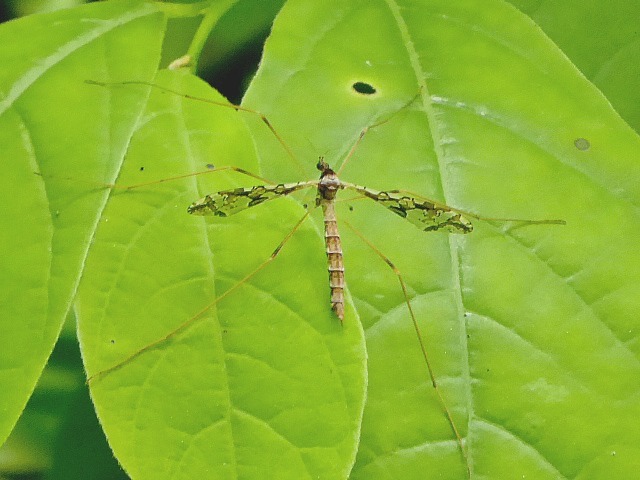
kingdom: Animalia
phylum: Arthropoda
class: Insecta
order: Diptera
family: Limoniidae
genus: Epiphragma
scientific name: Epiphragma solatrix
